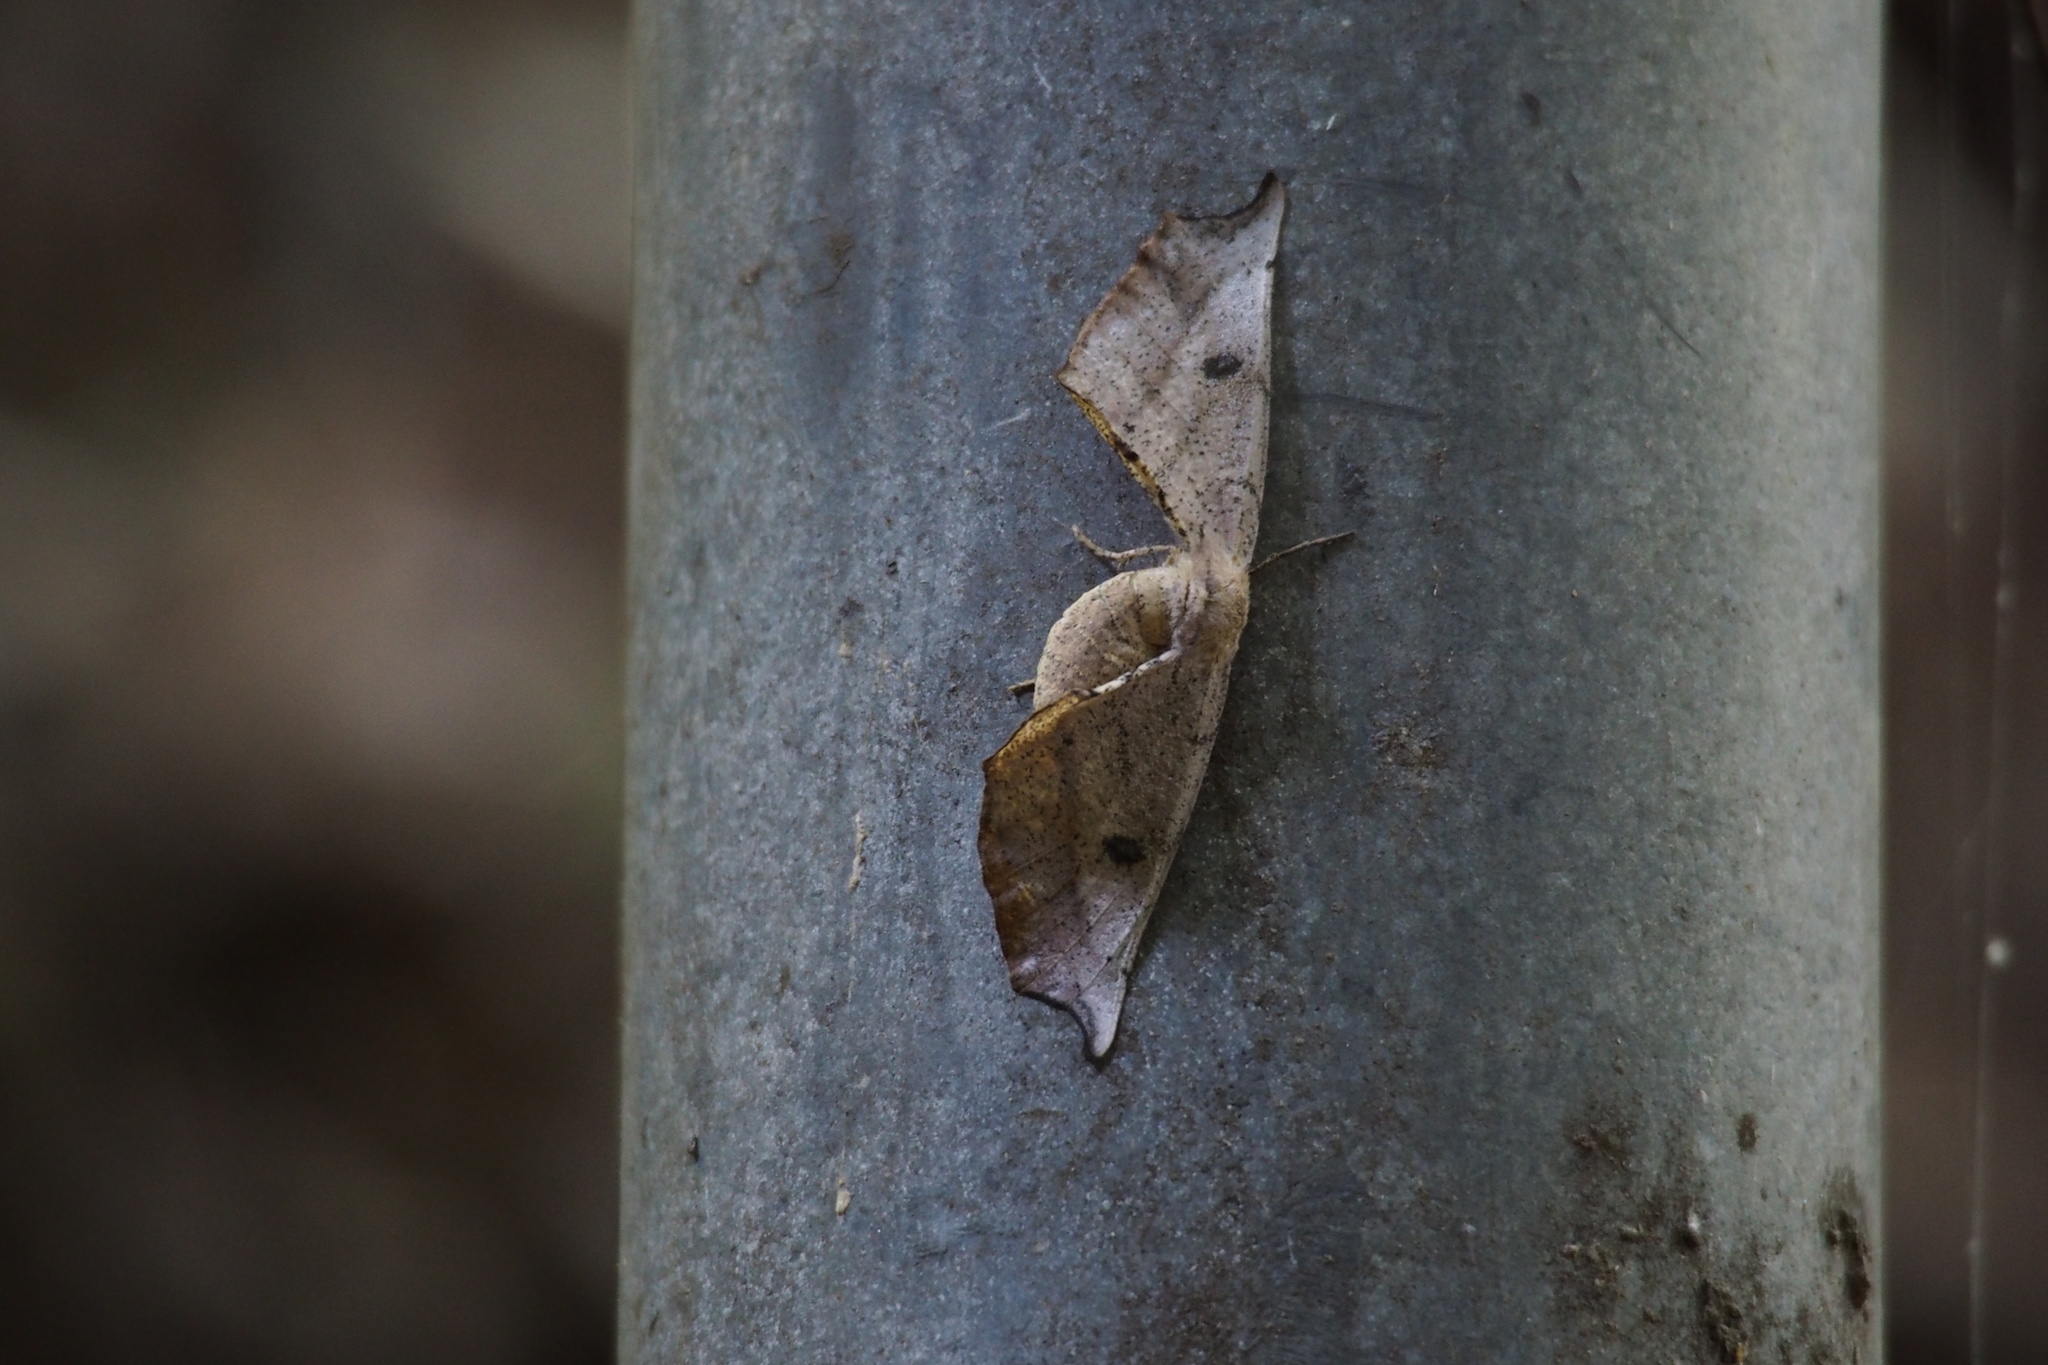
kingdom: Animalia
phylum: Arthropoda
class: Insecta
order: Lepidoptera
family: Geometridae
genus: Acrodontis
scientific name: Acrodontis fumosa
